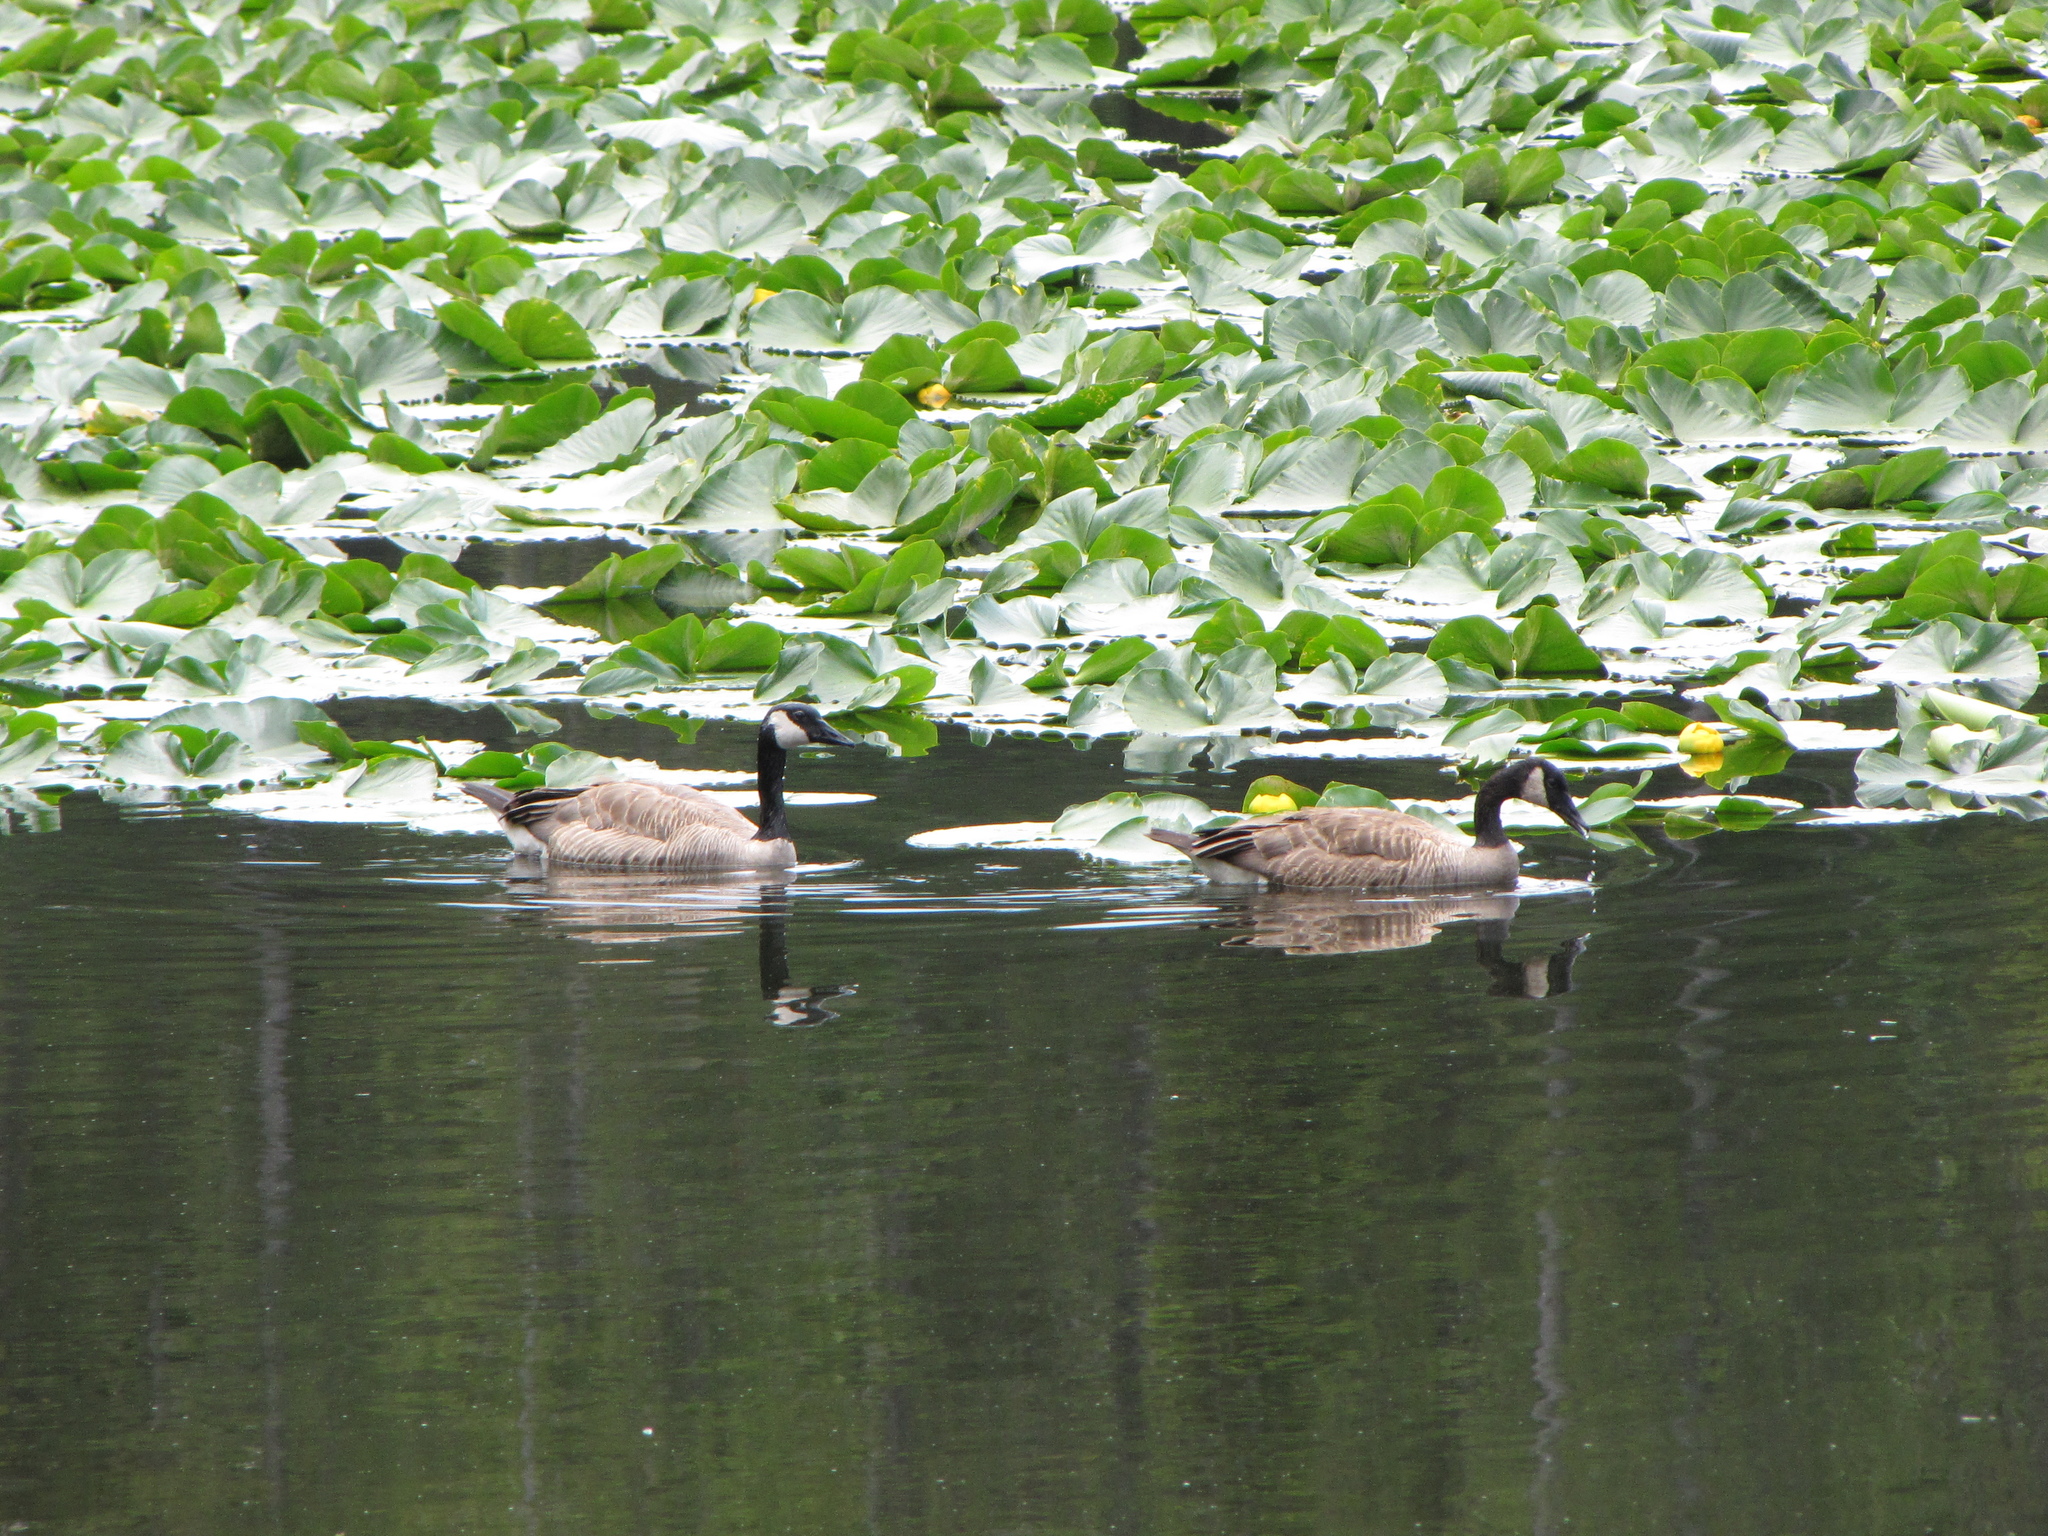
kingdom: Animalia
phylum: Chordata
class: Aves
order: Anseriformes
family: Anatidae
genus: Branta
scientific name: Branta canadensis
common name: Canada goose
